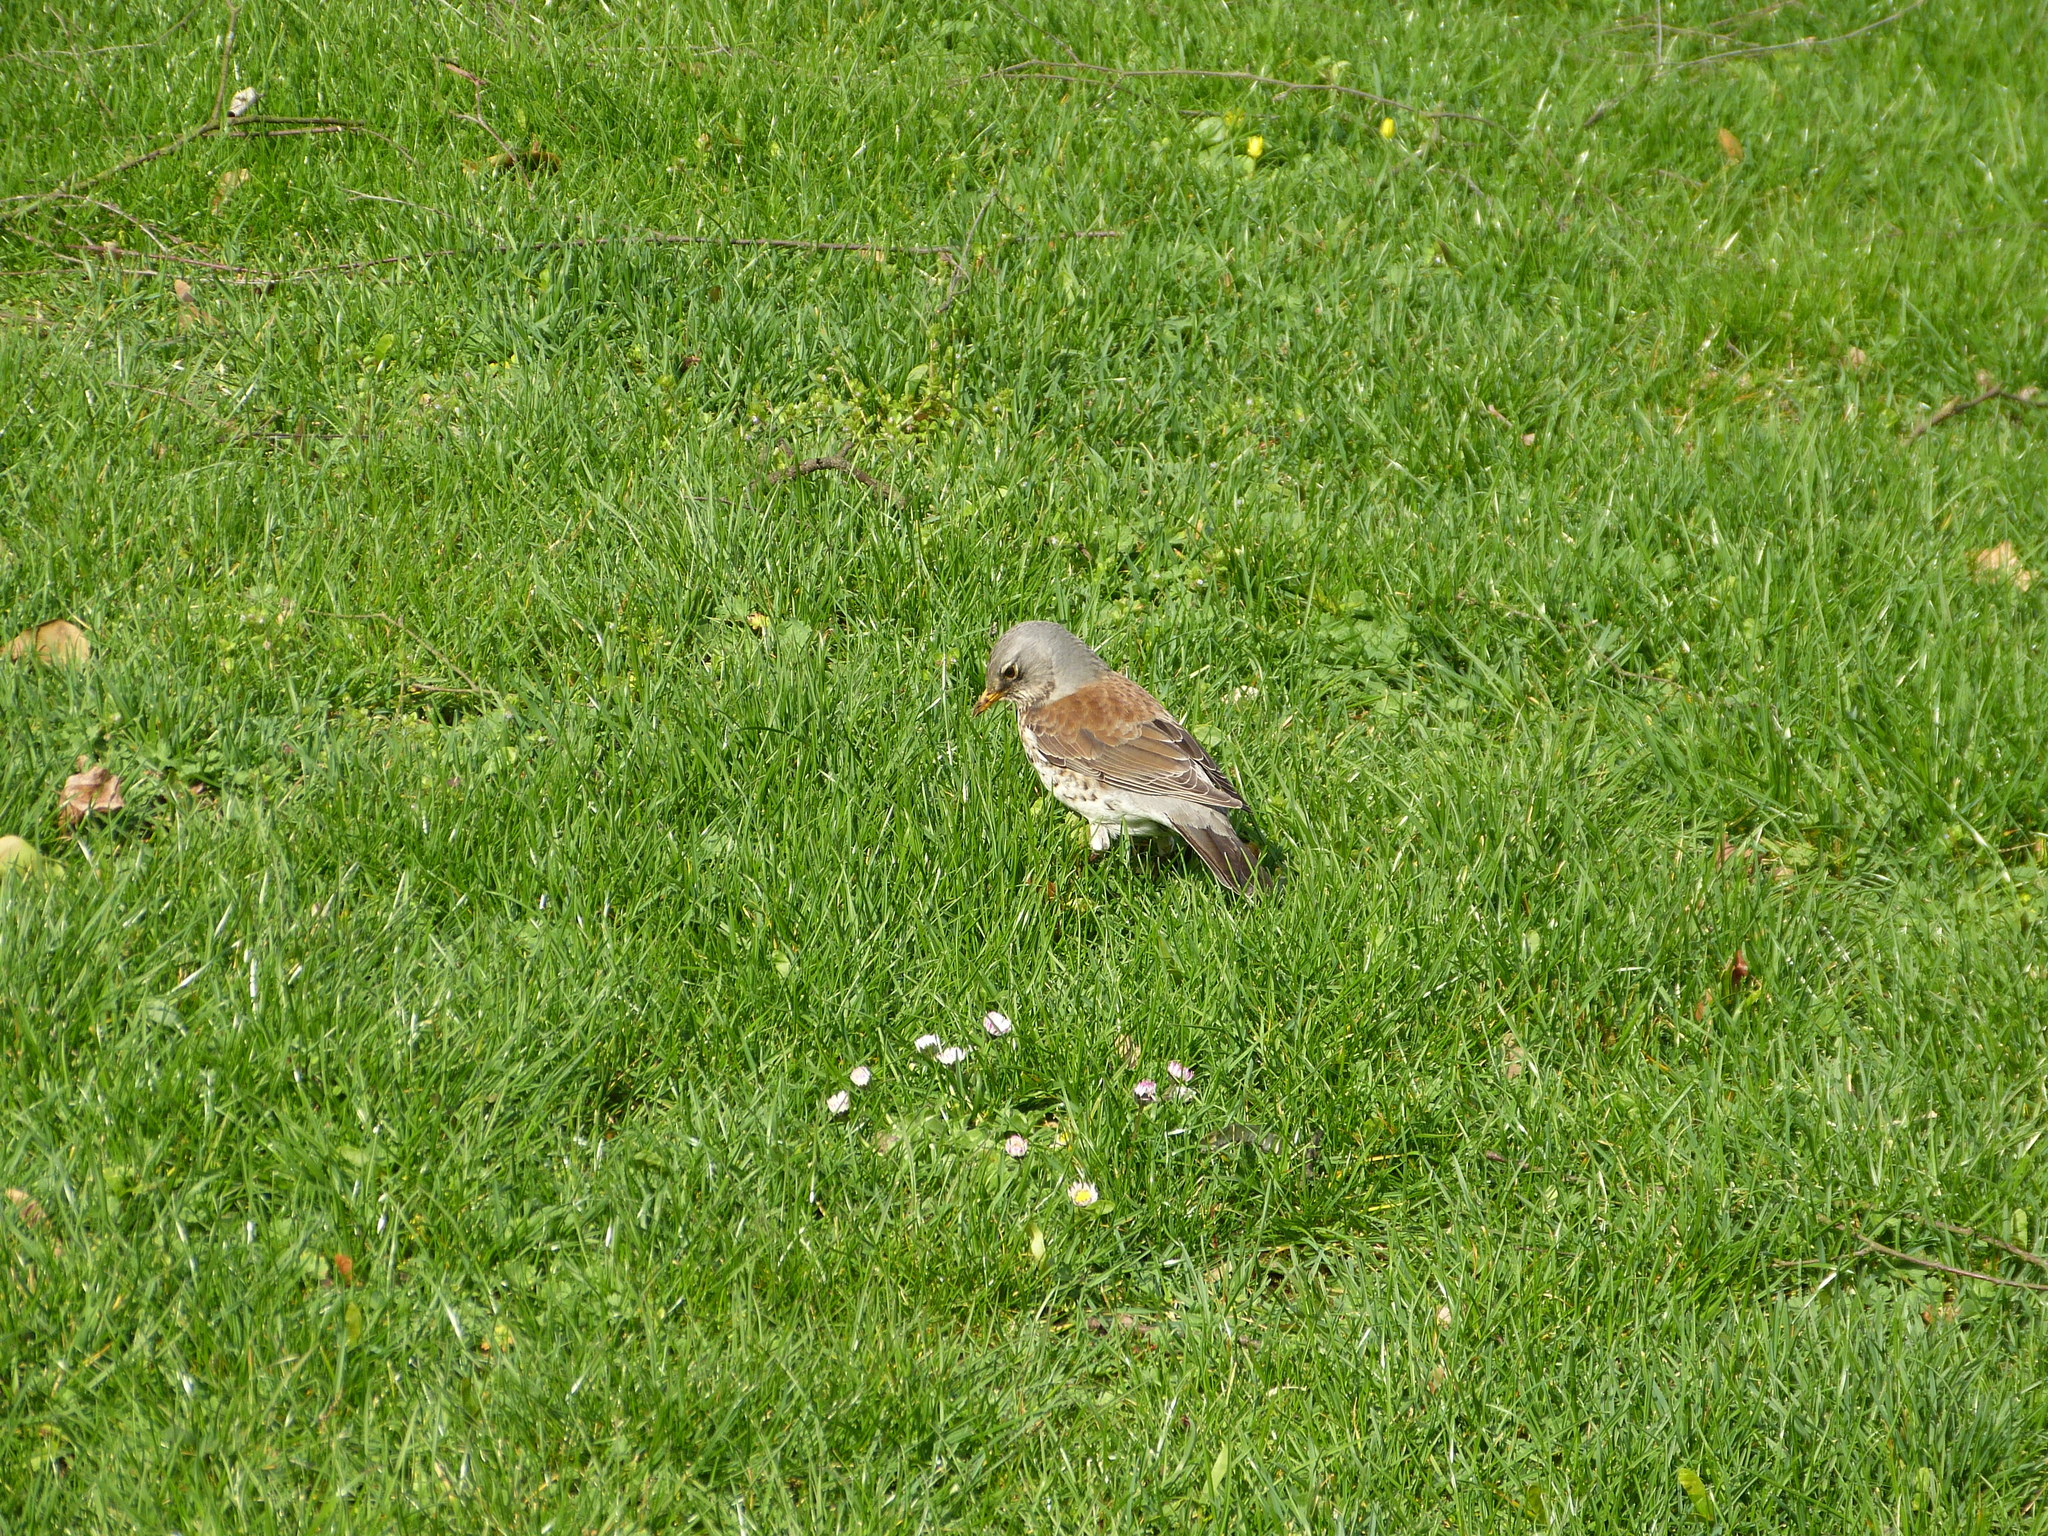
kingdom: Animalia
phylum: Chordata
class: Aves
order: Passeriformes
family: Turdidae
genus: Turdus
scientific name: Turdus pilaris
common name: Fieldfare
